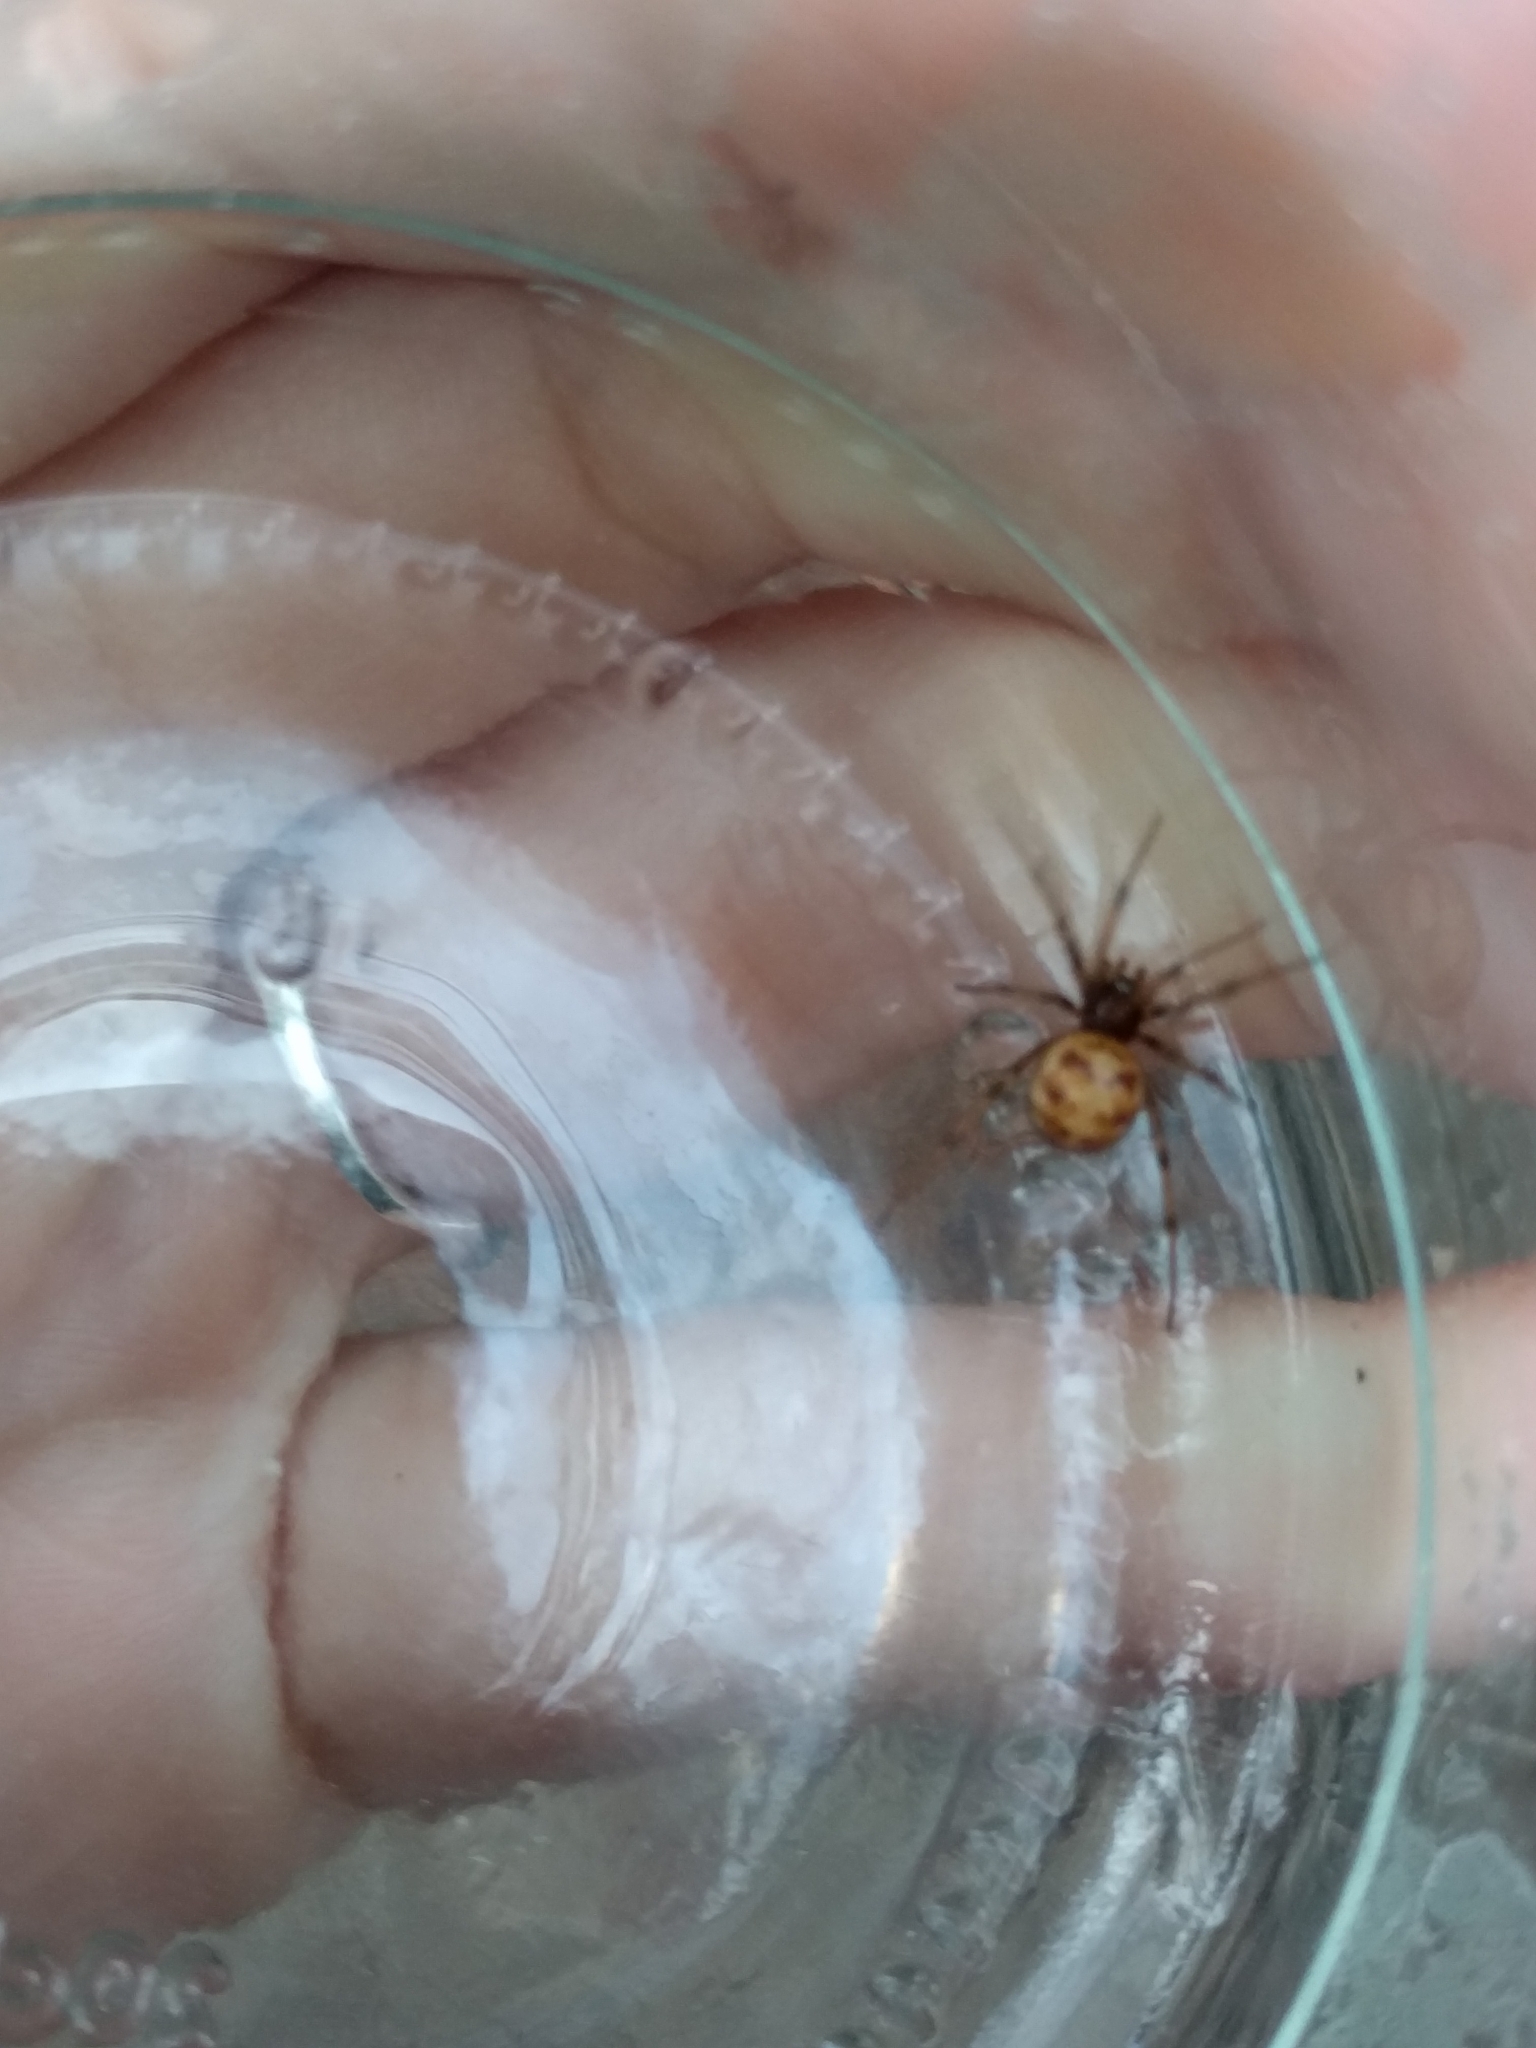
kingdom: Animalia
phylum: Arthropoda
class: Arachnida
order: Araneae
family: Theridiidae
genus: Steatoda
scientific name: Steatoda triangulosa
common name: Triangulate bud spider
